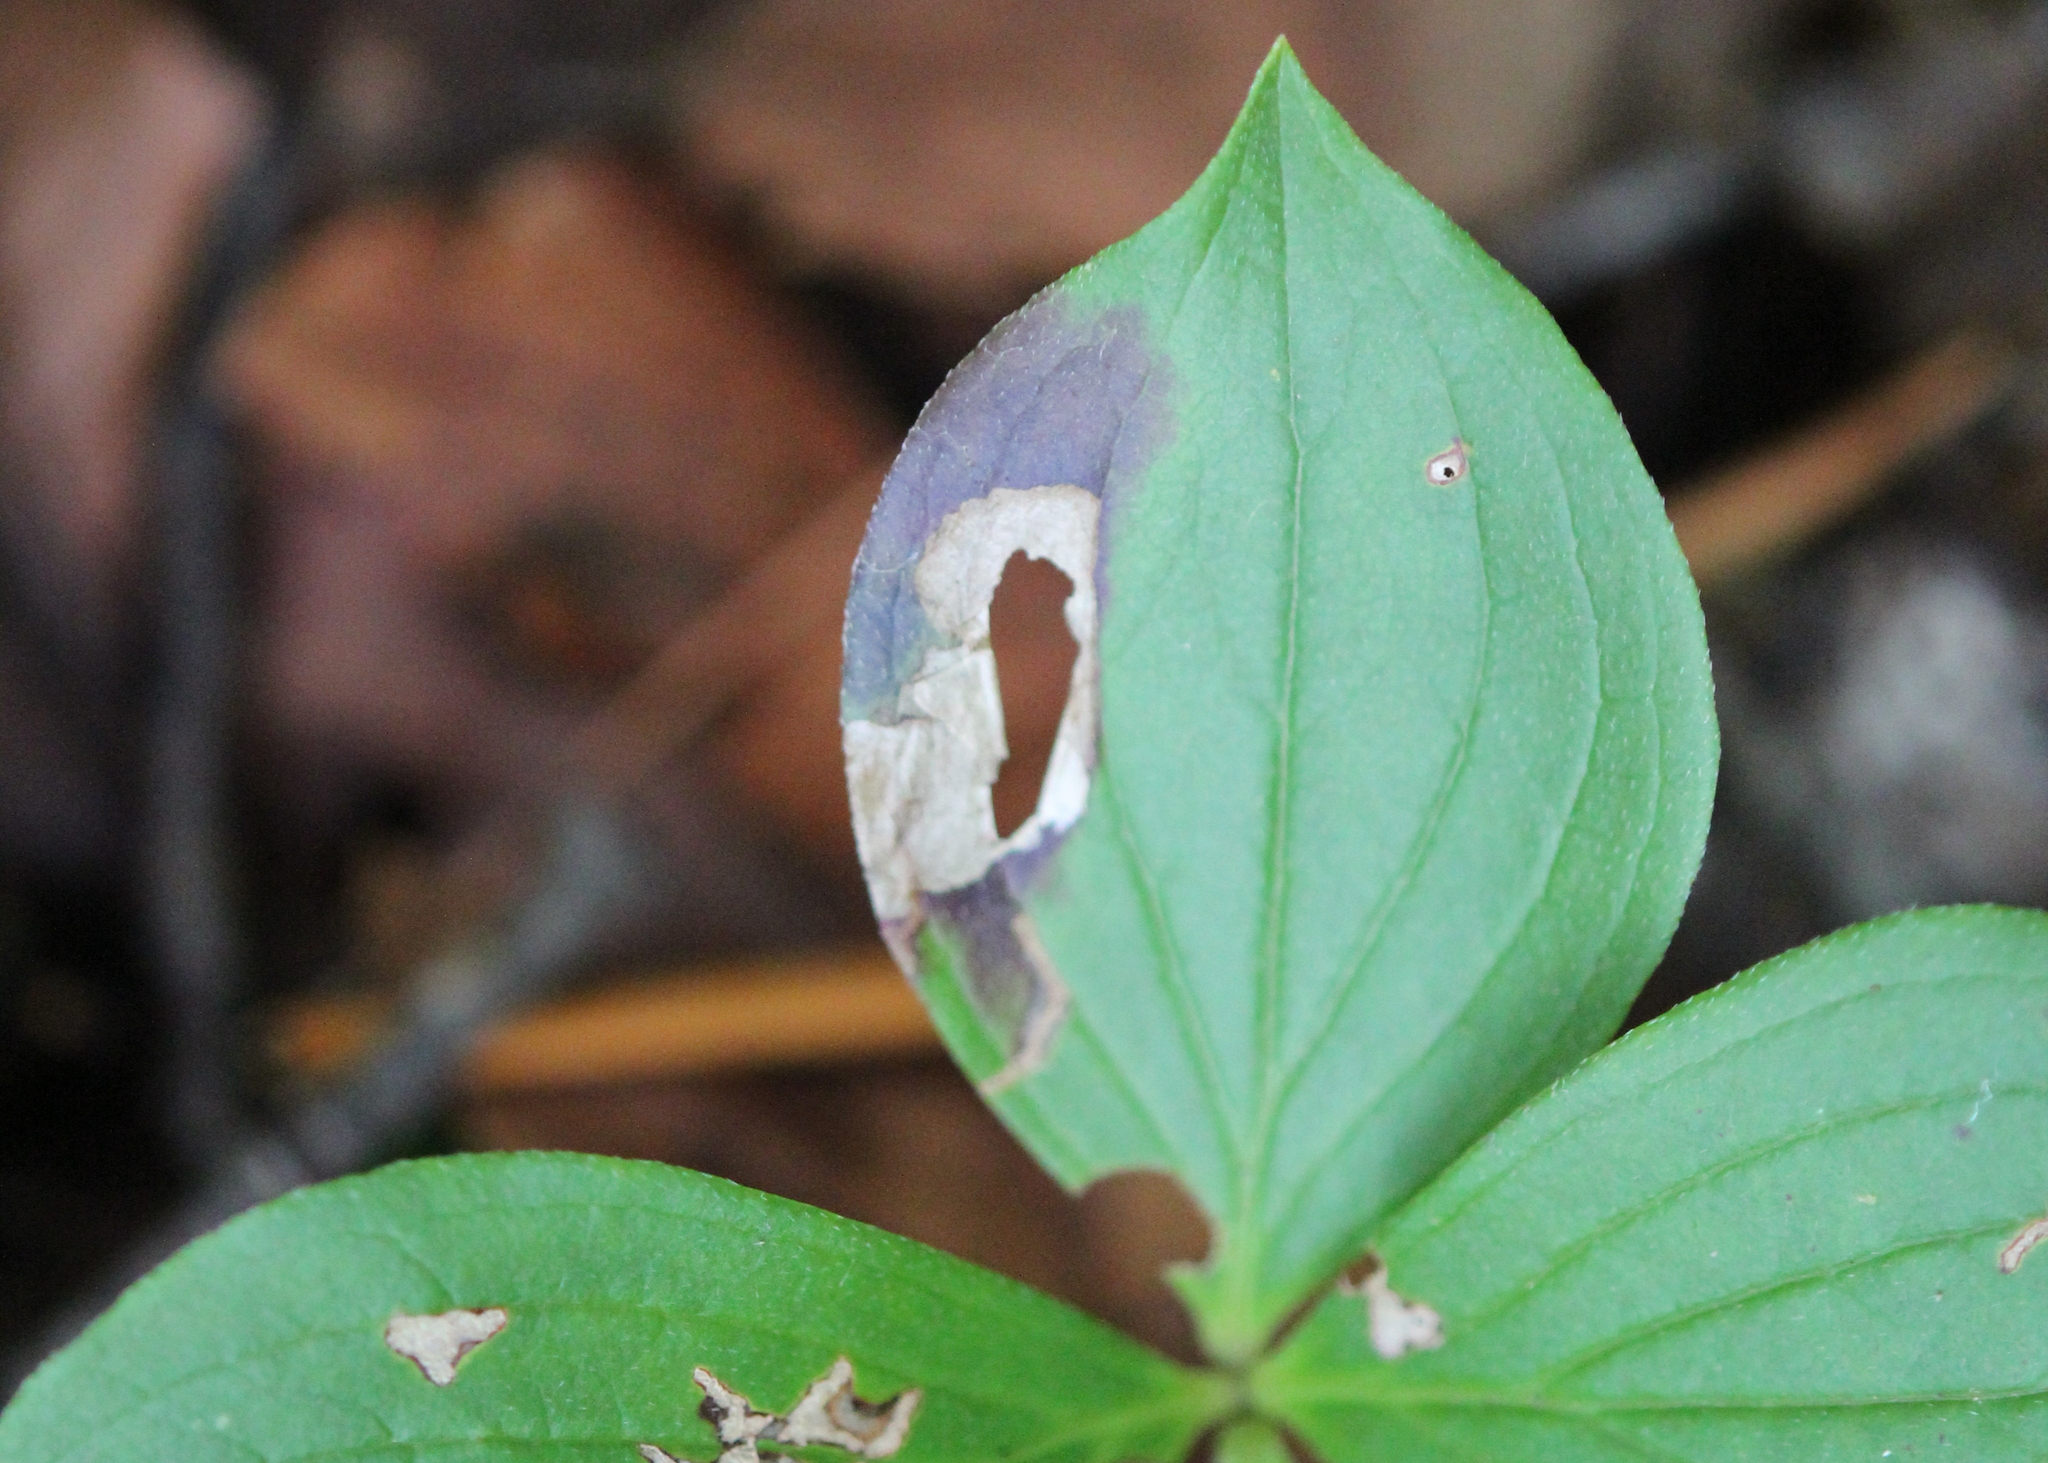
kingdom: Animalia
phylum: Arthropoda
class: Insecta
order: Lepidoptera
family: Heliozelidae
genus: Antispila
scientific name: Antispila freemani
